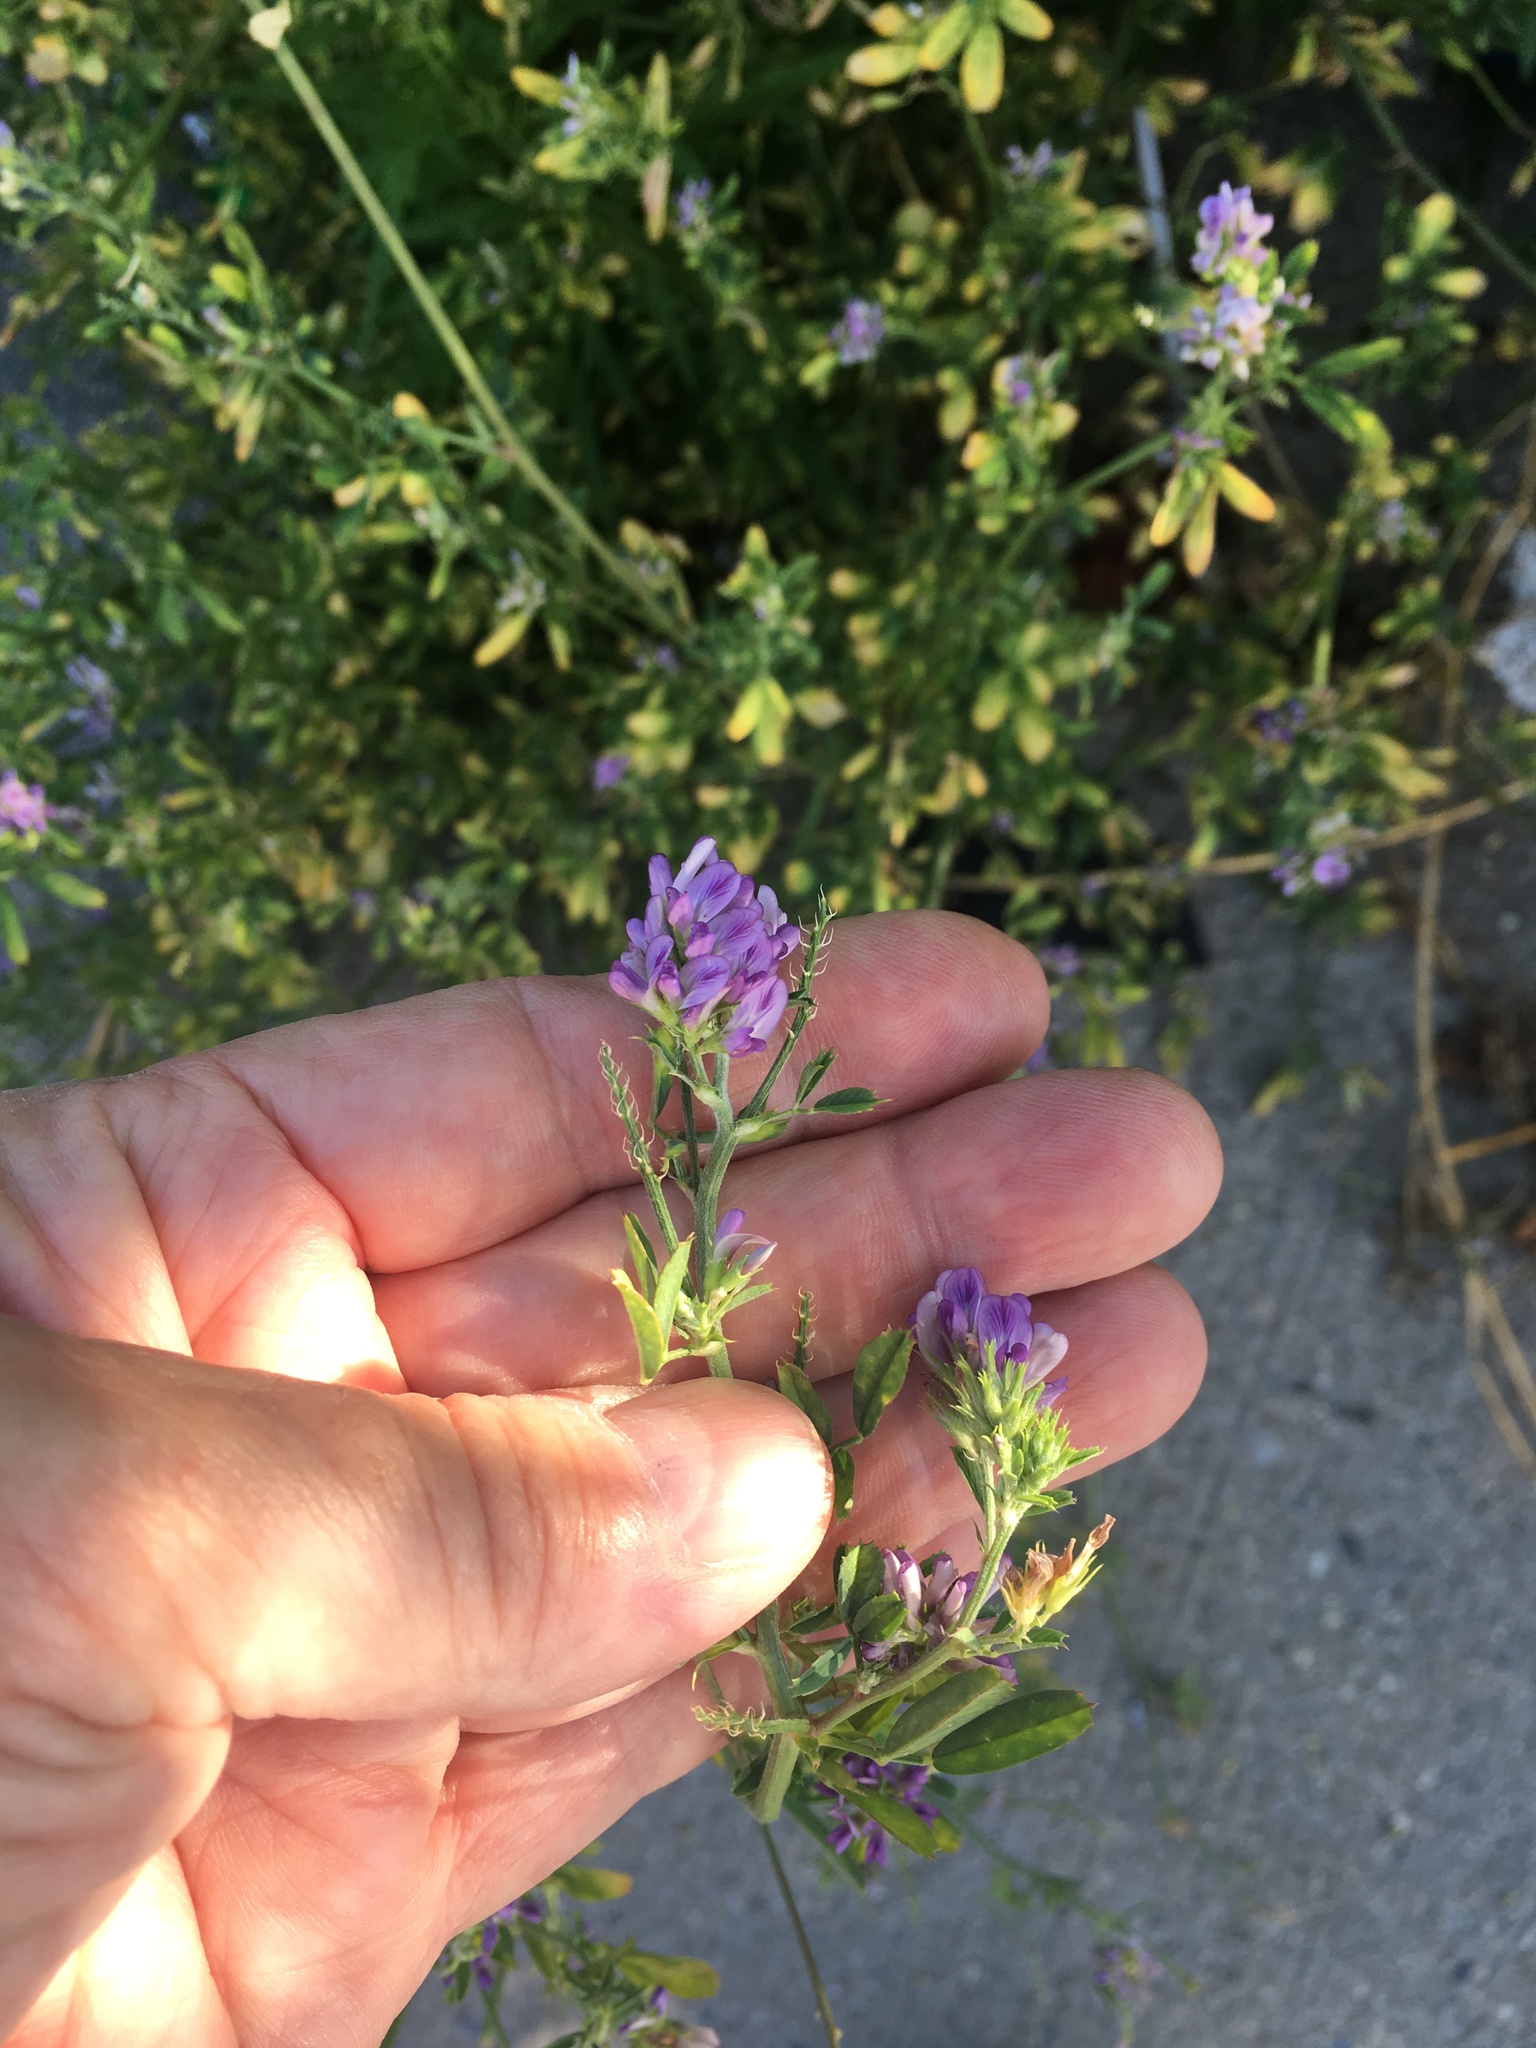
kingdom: Plantae
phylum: Tracheophyta
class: Magnoliopsida
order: Fabales
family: Fabaceae
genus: Medicago
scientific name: Medicago sativa
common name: Alfalfa
